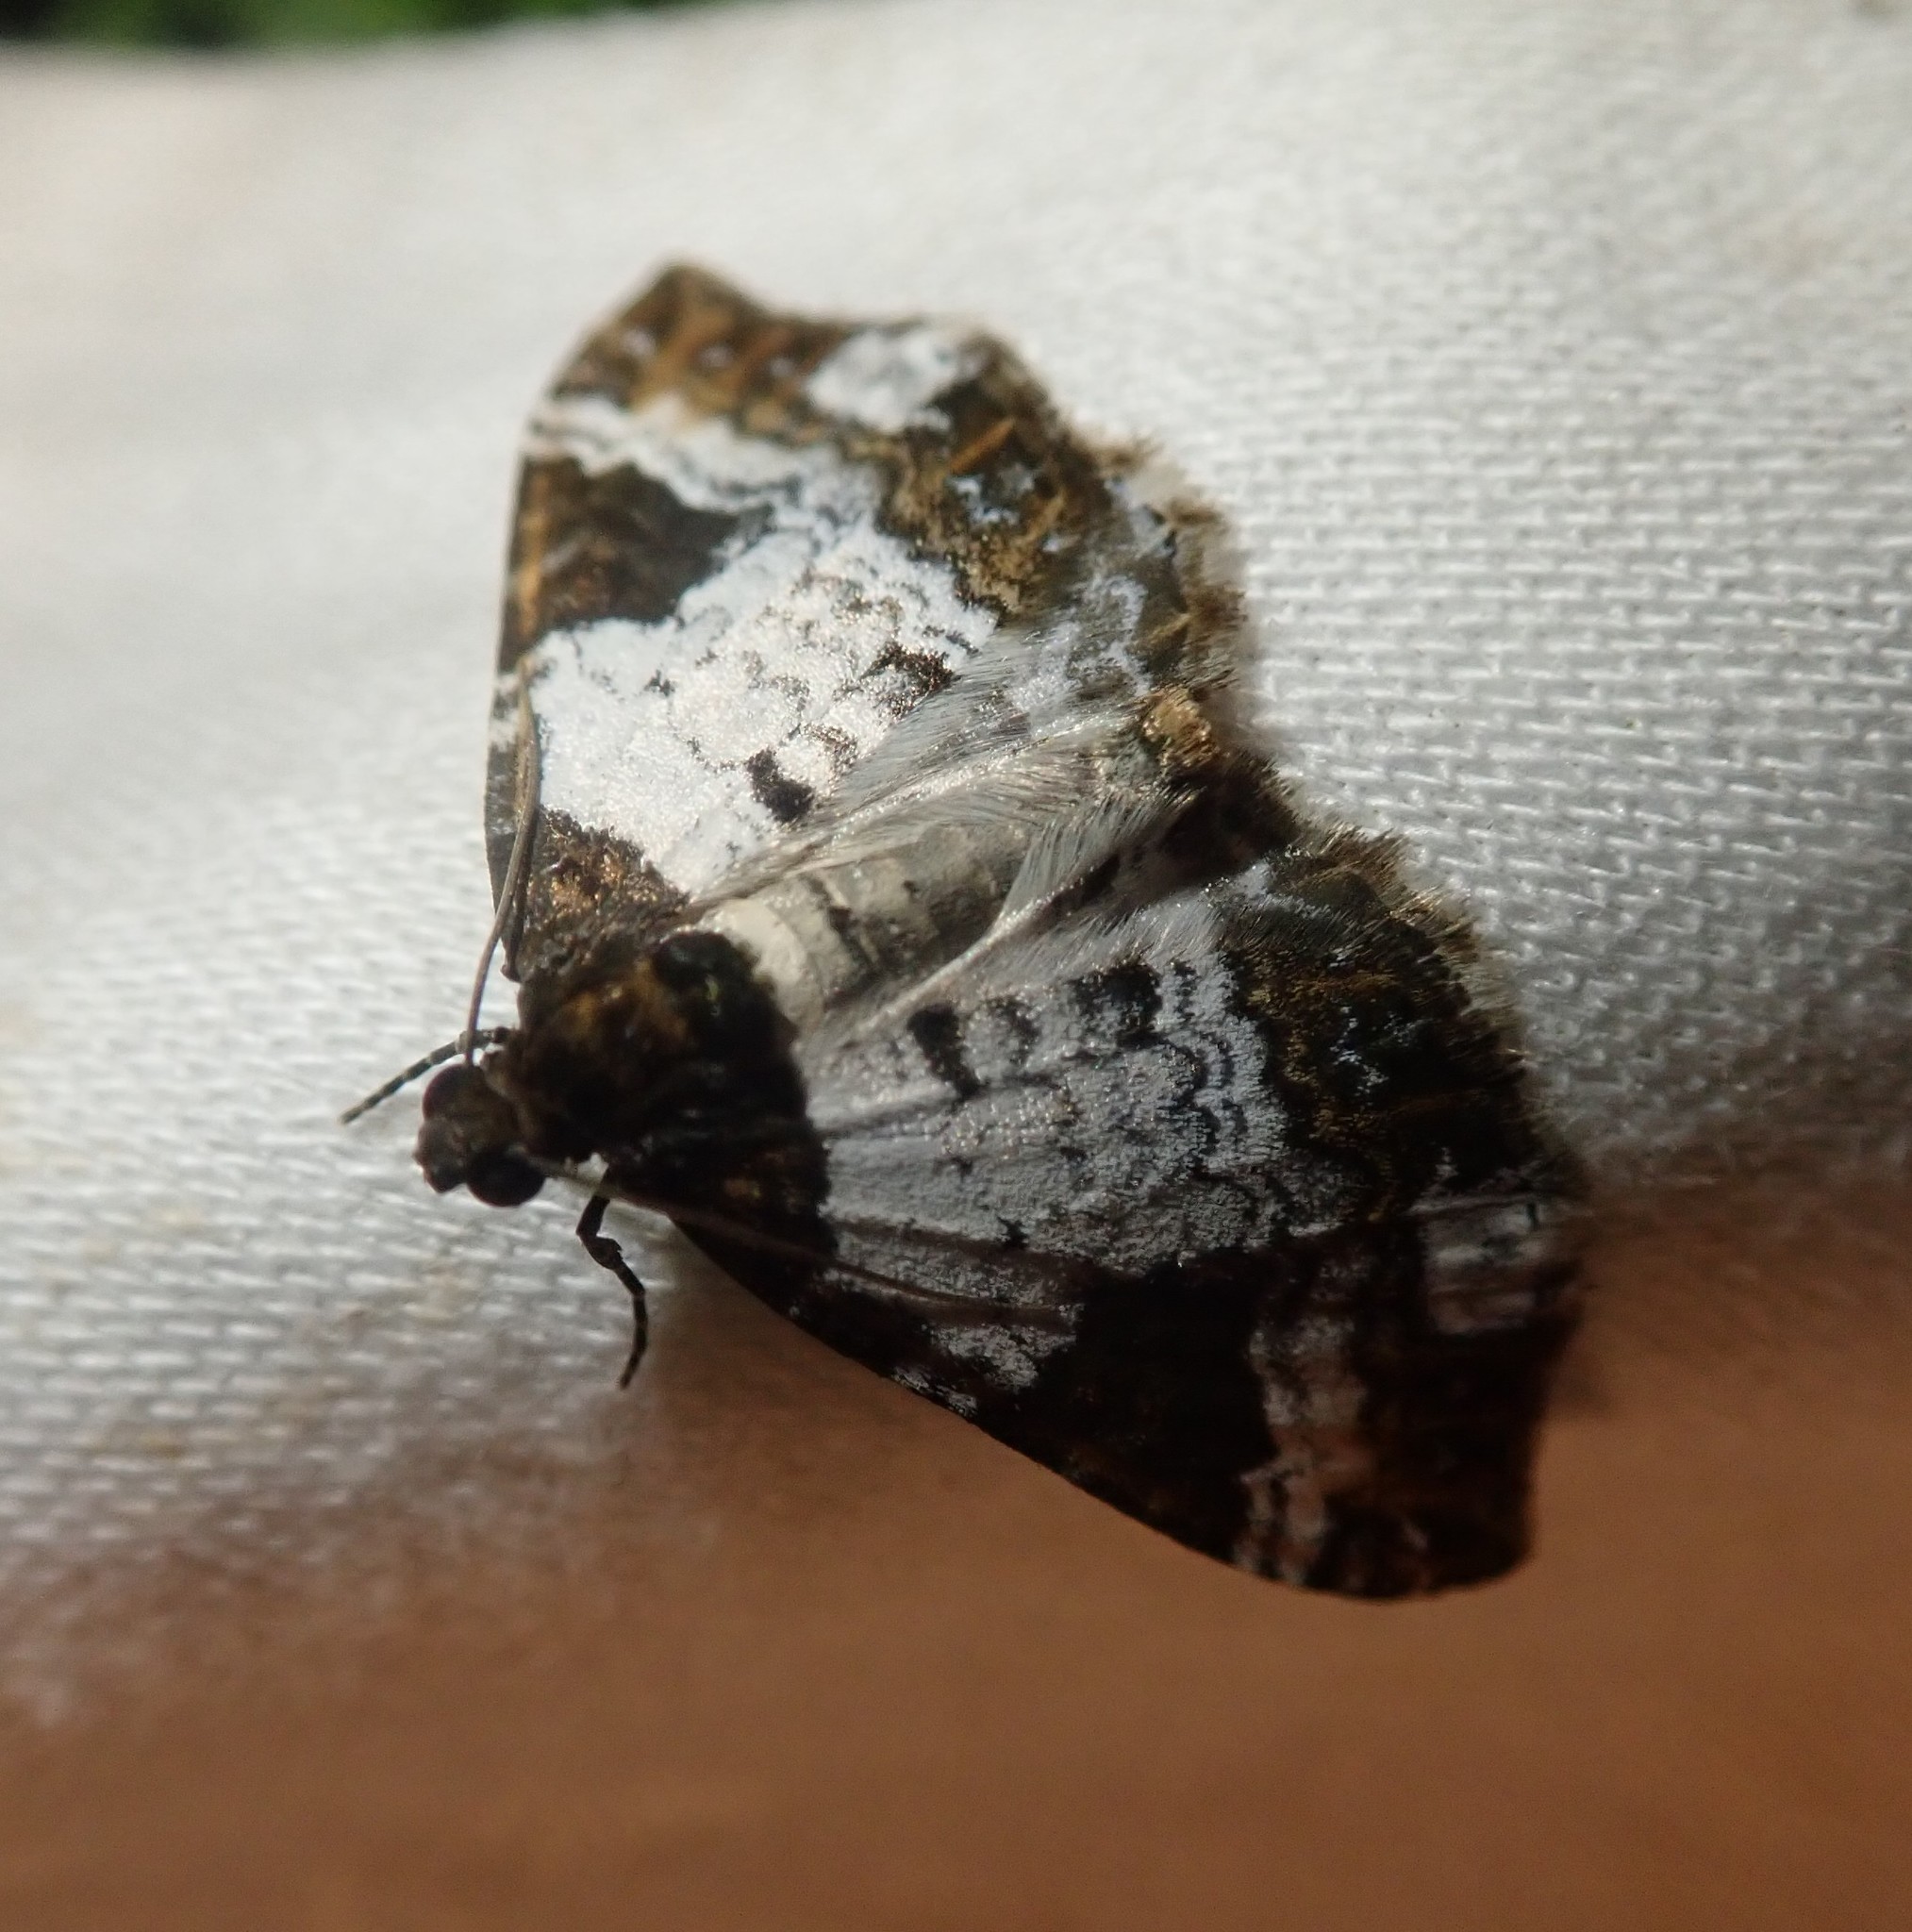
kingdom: Animalia
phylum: Arthropoda
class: Insecta
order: Lepidoptera
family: Geometridae
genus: Melanthia
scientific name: Melanthia procellata
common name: Pretty chalk carpet
